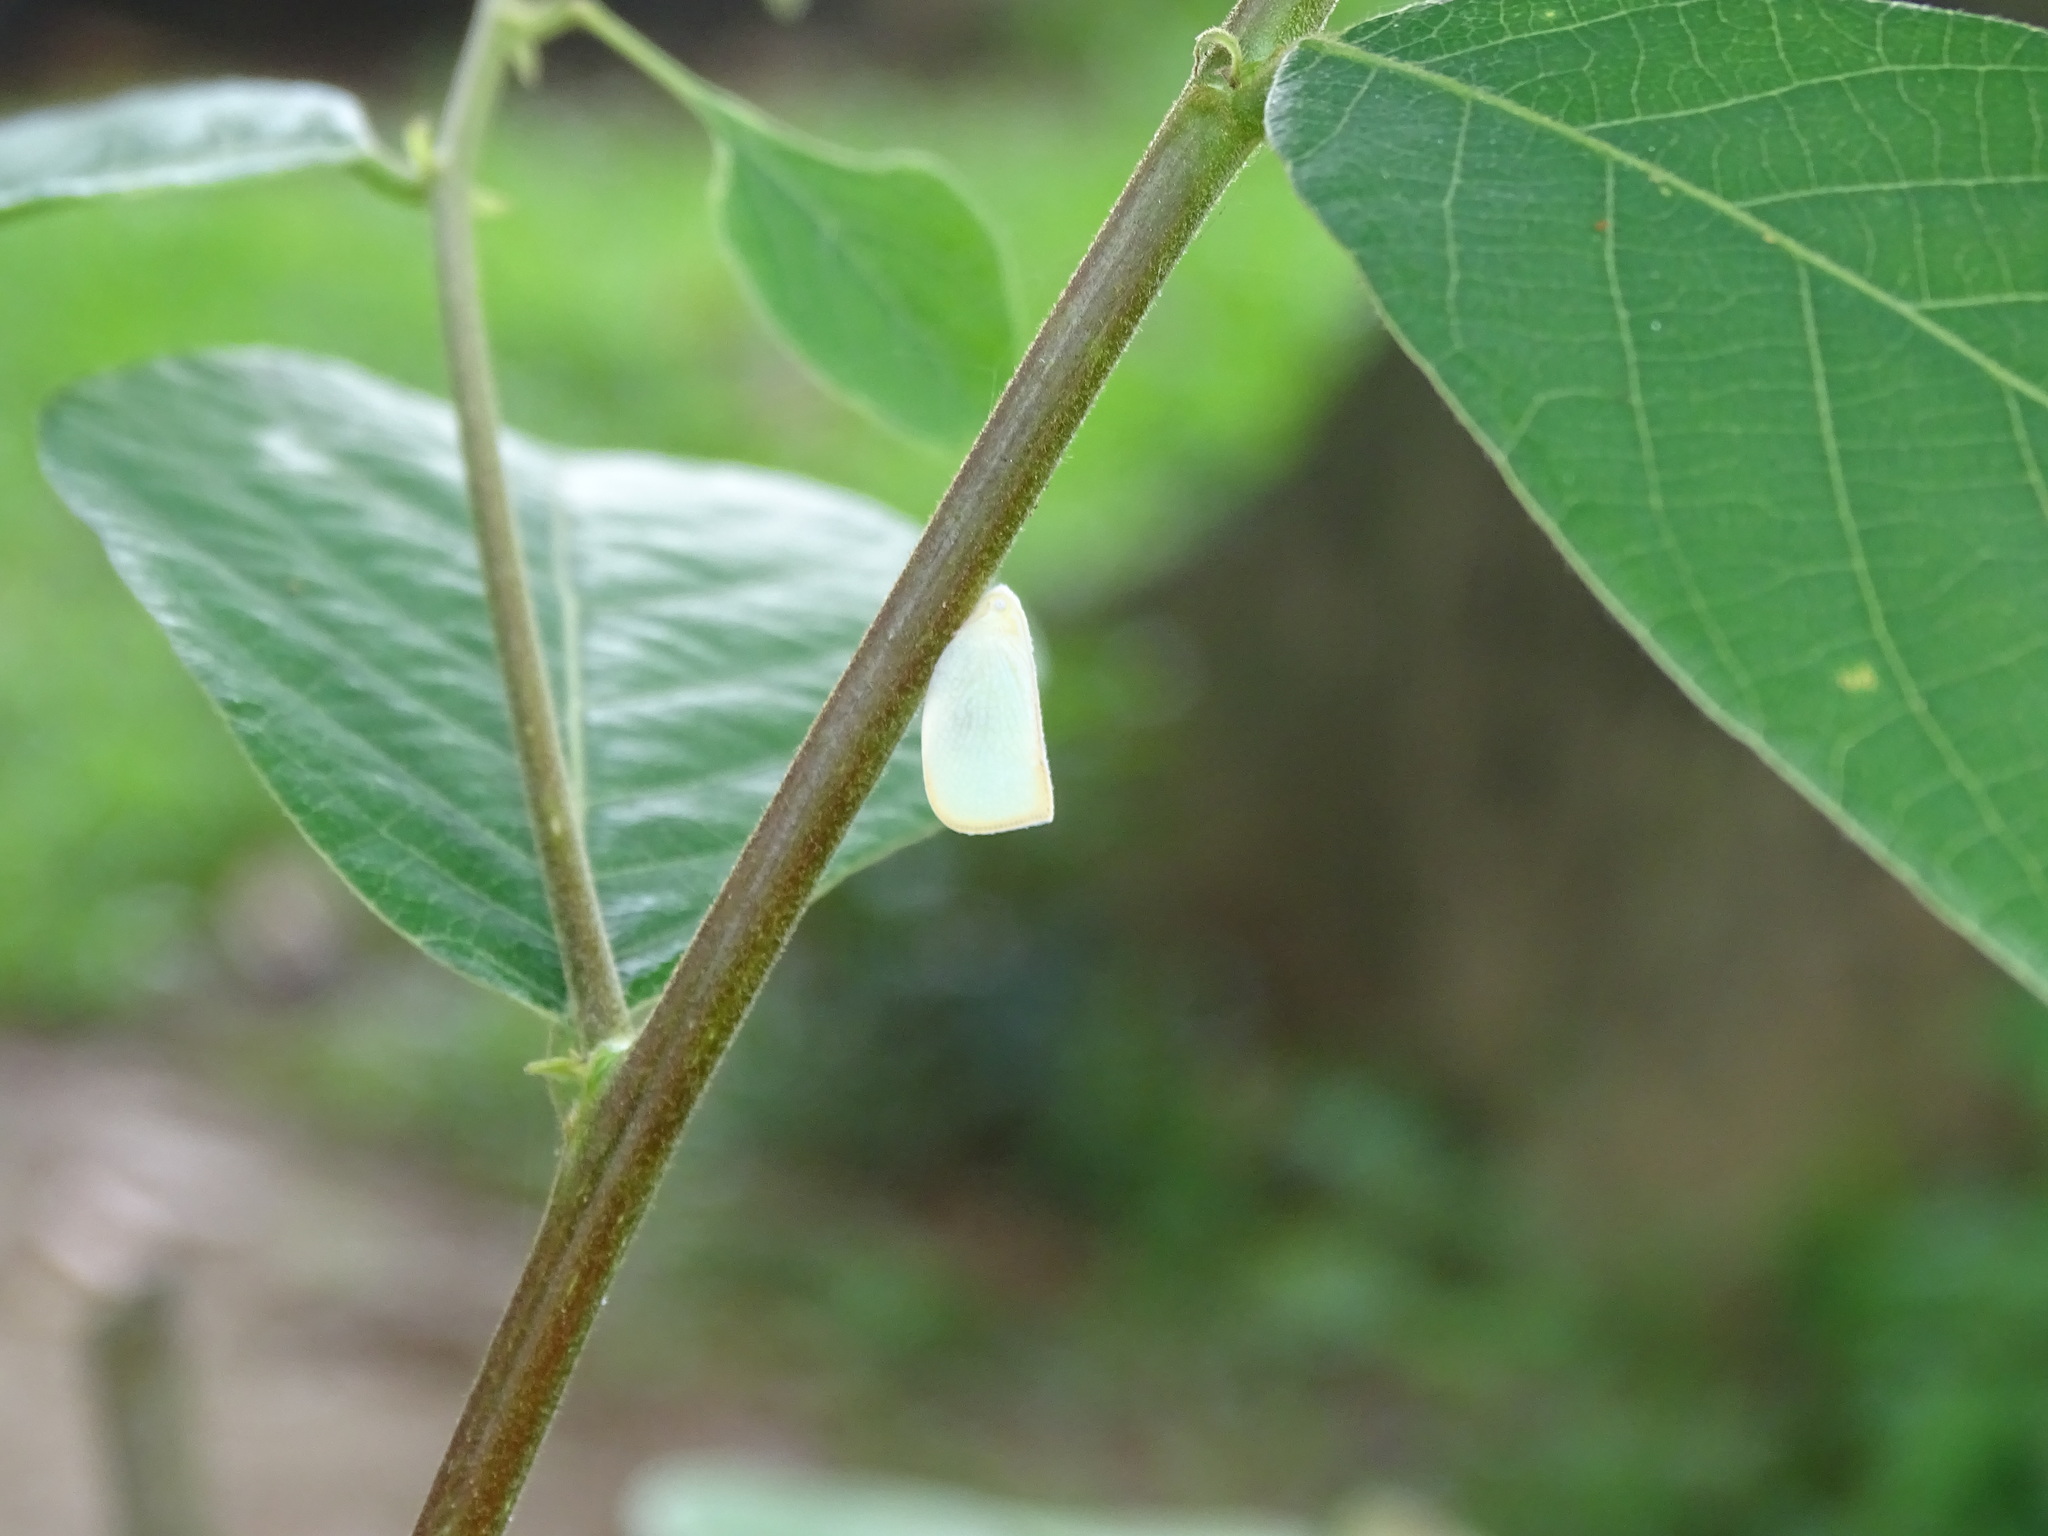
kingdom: Animalia
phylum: Arthropoda
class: Insecta
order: Hemiptera
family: Flatidae
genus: Geisha
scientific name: Geisha distinctissima
